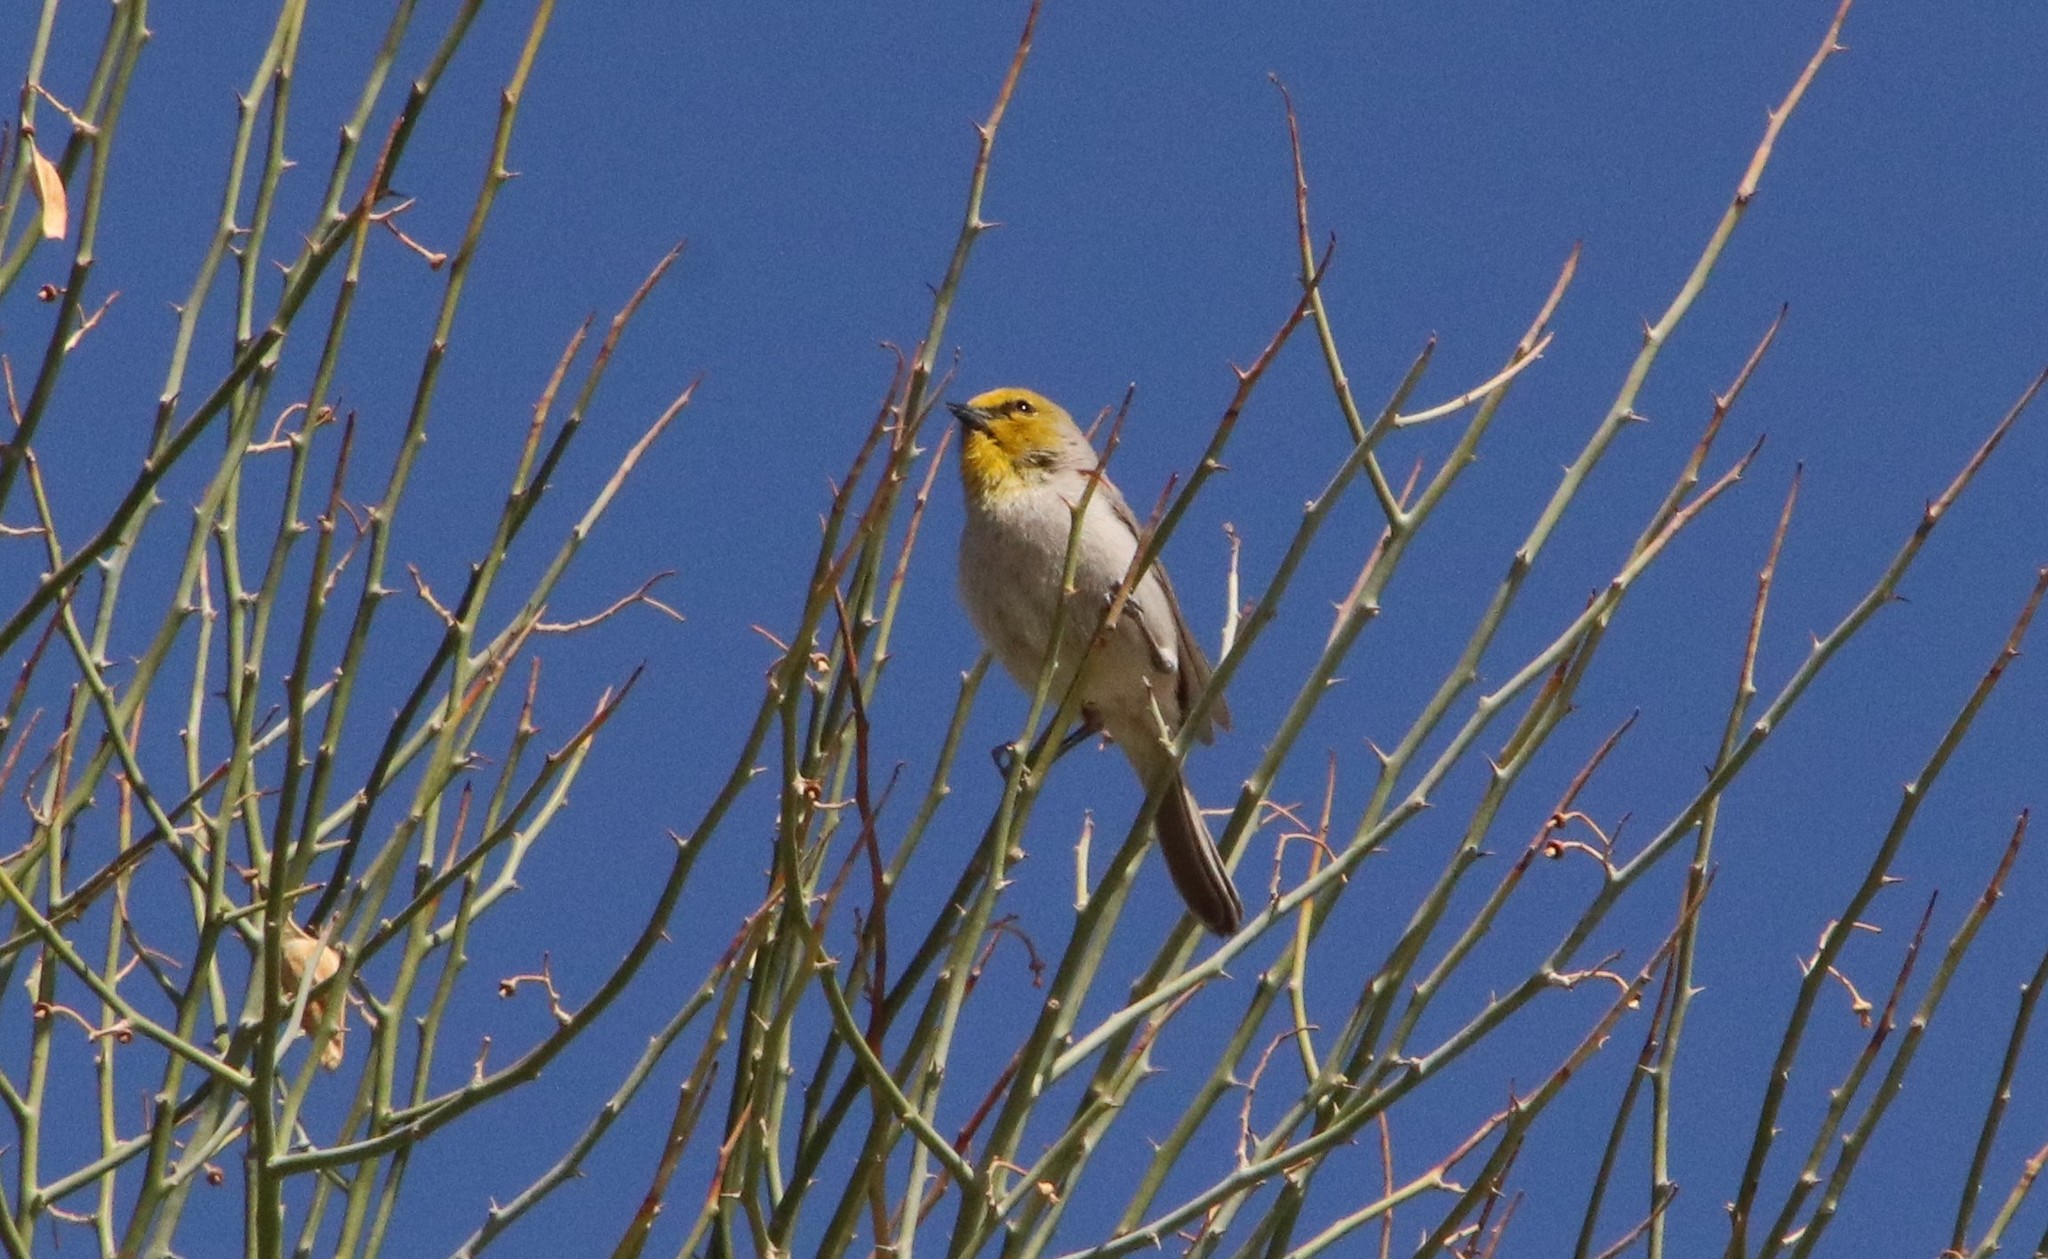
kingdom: Animalia
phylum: Chordata
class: Aves
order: Passeriformes
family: Remizidae
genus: Auriparus
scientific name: Auriparus flaviceps
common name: Verdin
